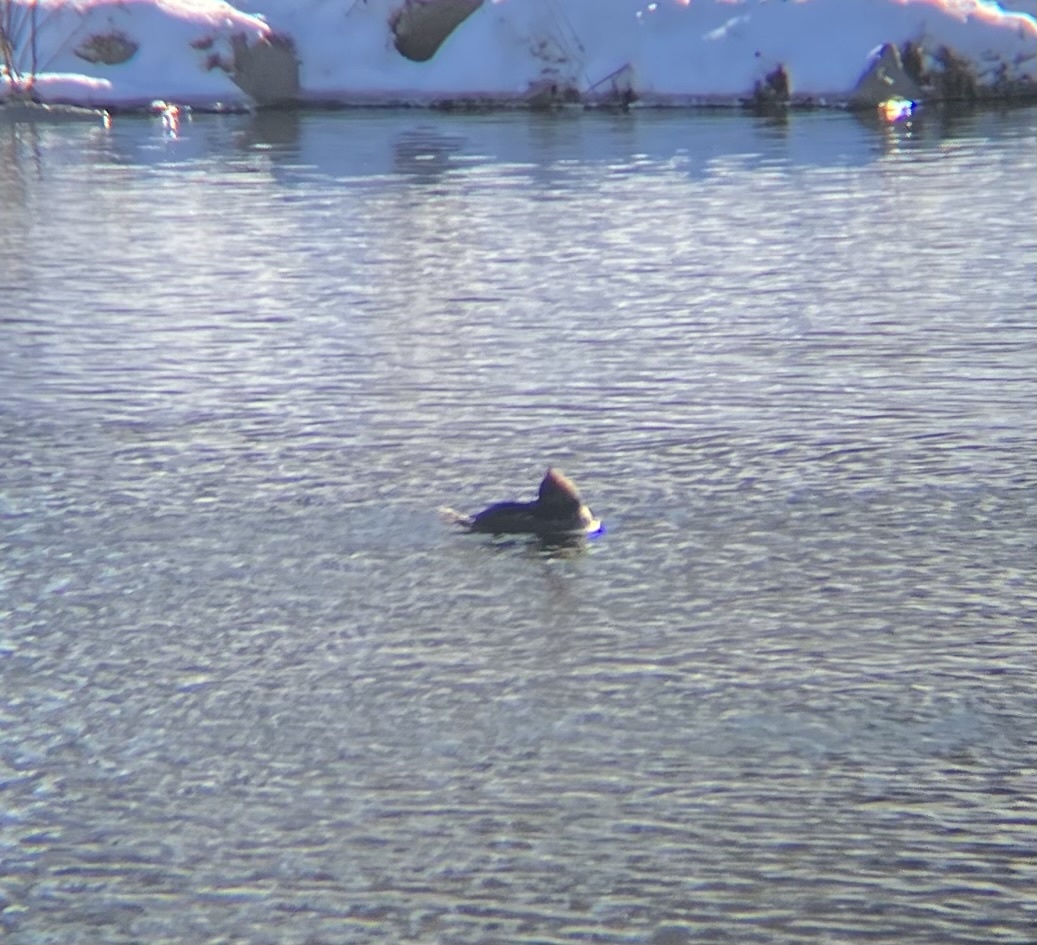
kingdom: Animalia
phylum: Chordata
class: Aves
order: Anseriformes
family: Anatidae
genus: Lophodytes
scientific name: Lophodytes cucullatus
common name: Hooded merganser
